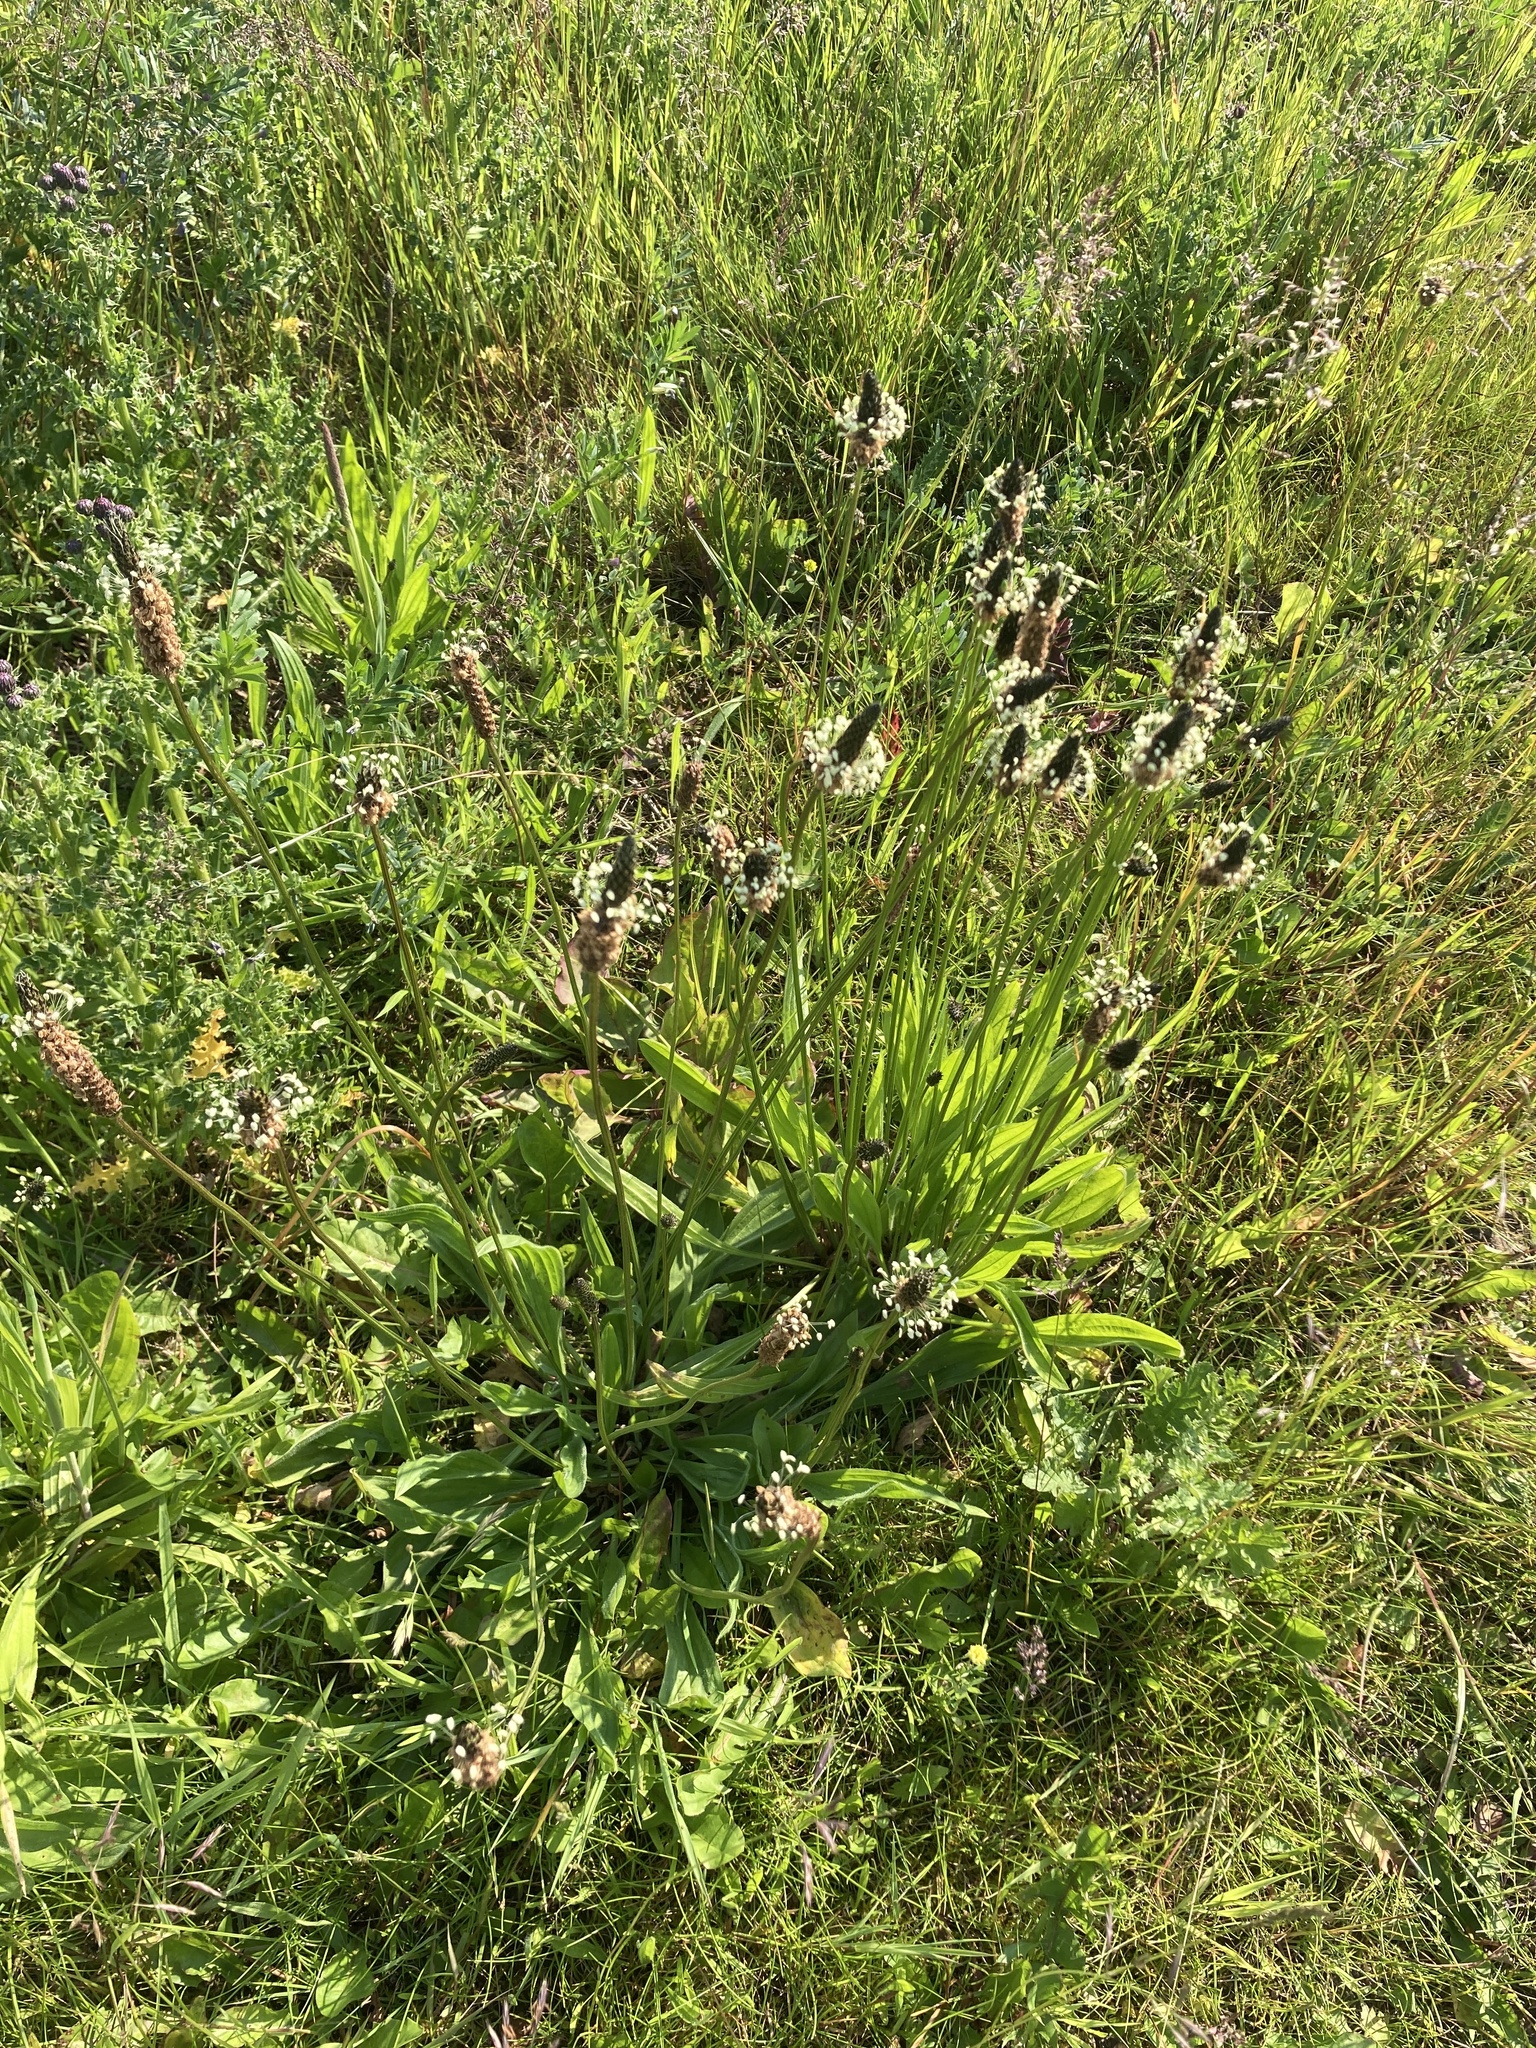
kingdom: Plantae
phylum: Tracheophyta
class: Magnoliopsida
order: Lamiales
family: Plantaginaceae
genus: Plantago
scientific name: Plantago lanceolata
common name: Ribwort plantain
